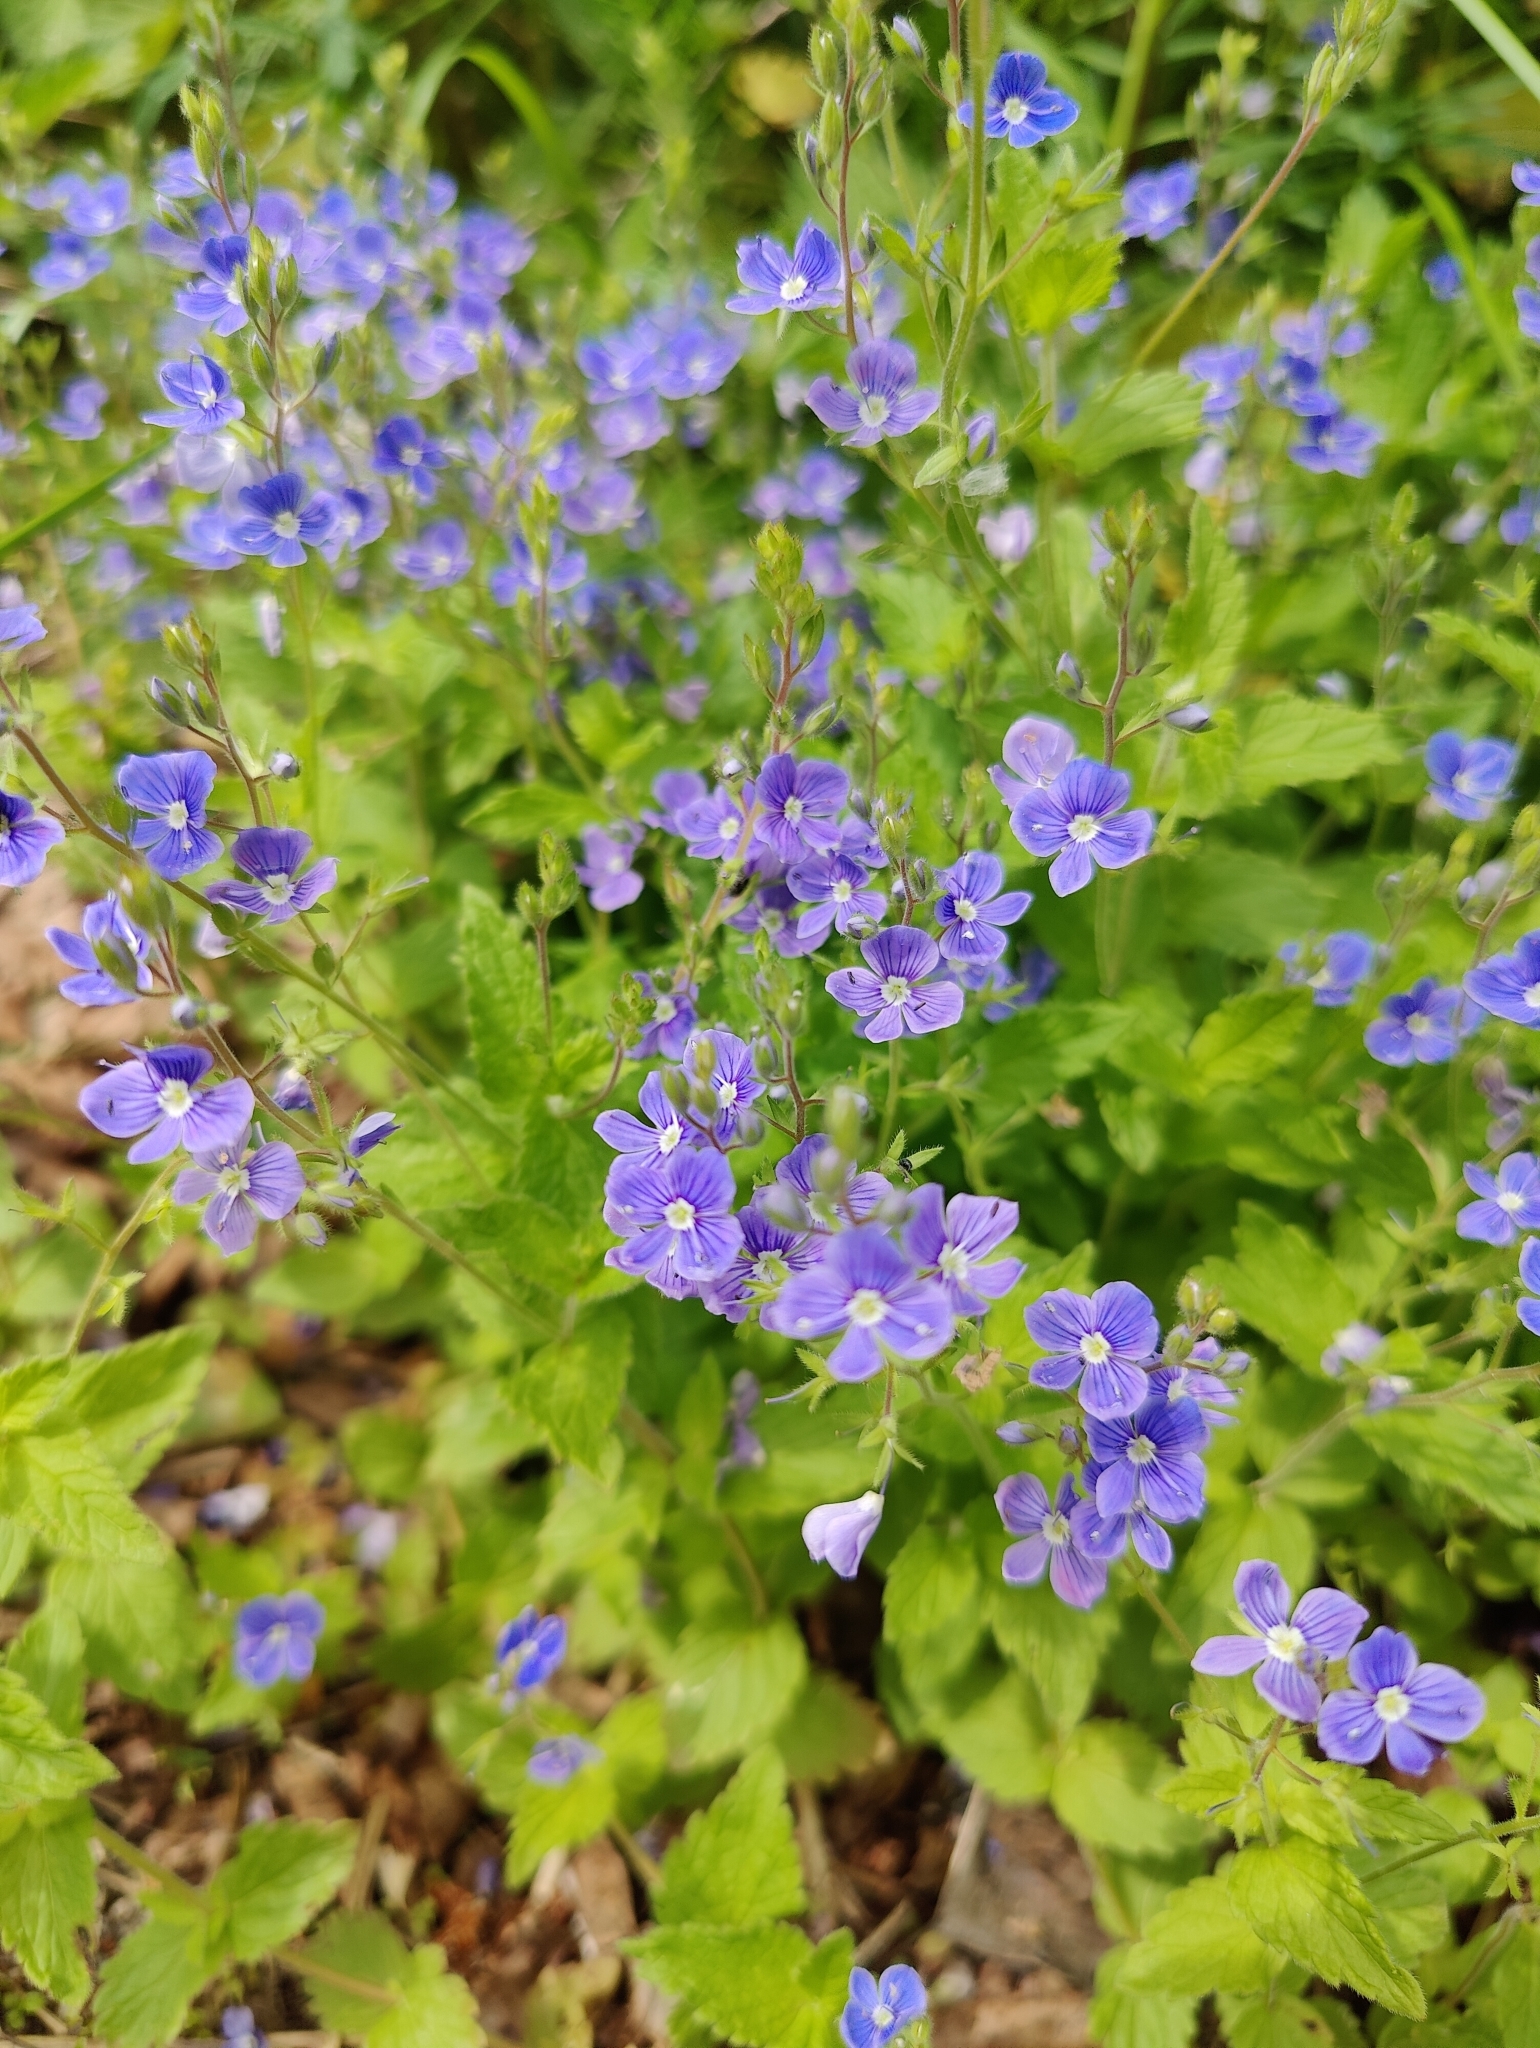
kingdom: Plantae
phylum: Tracheophyta
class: Magnoliopsida
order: Lamiales
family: Plantaginaceae
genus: Veronica
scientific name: Veronica chamaedrys
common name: Germander speedwell
